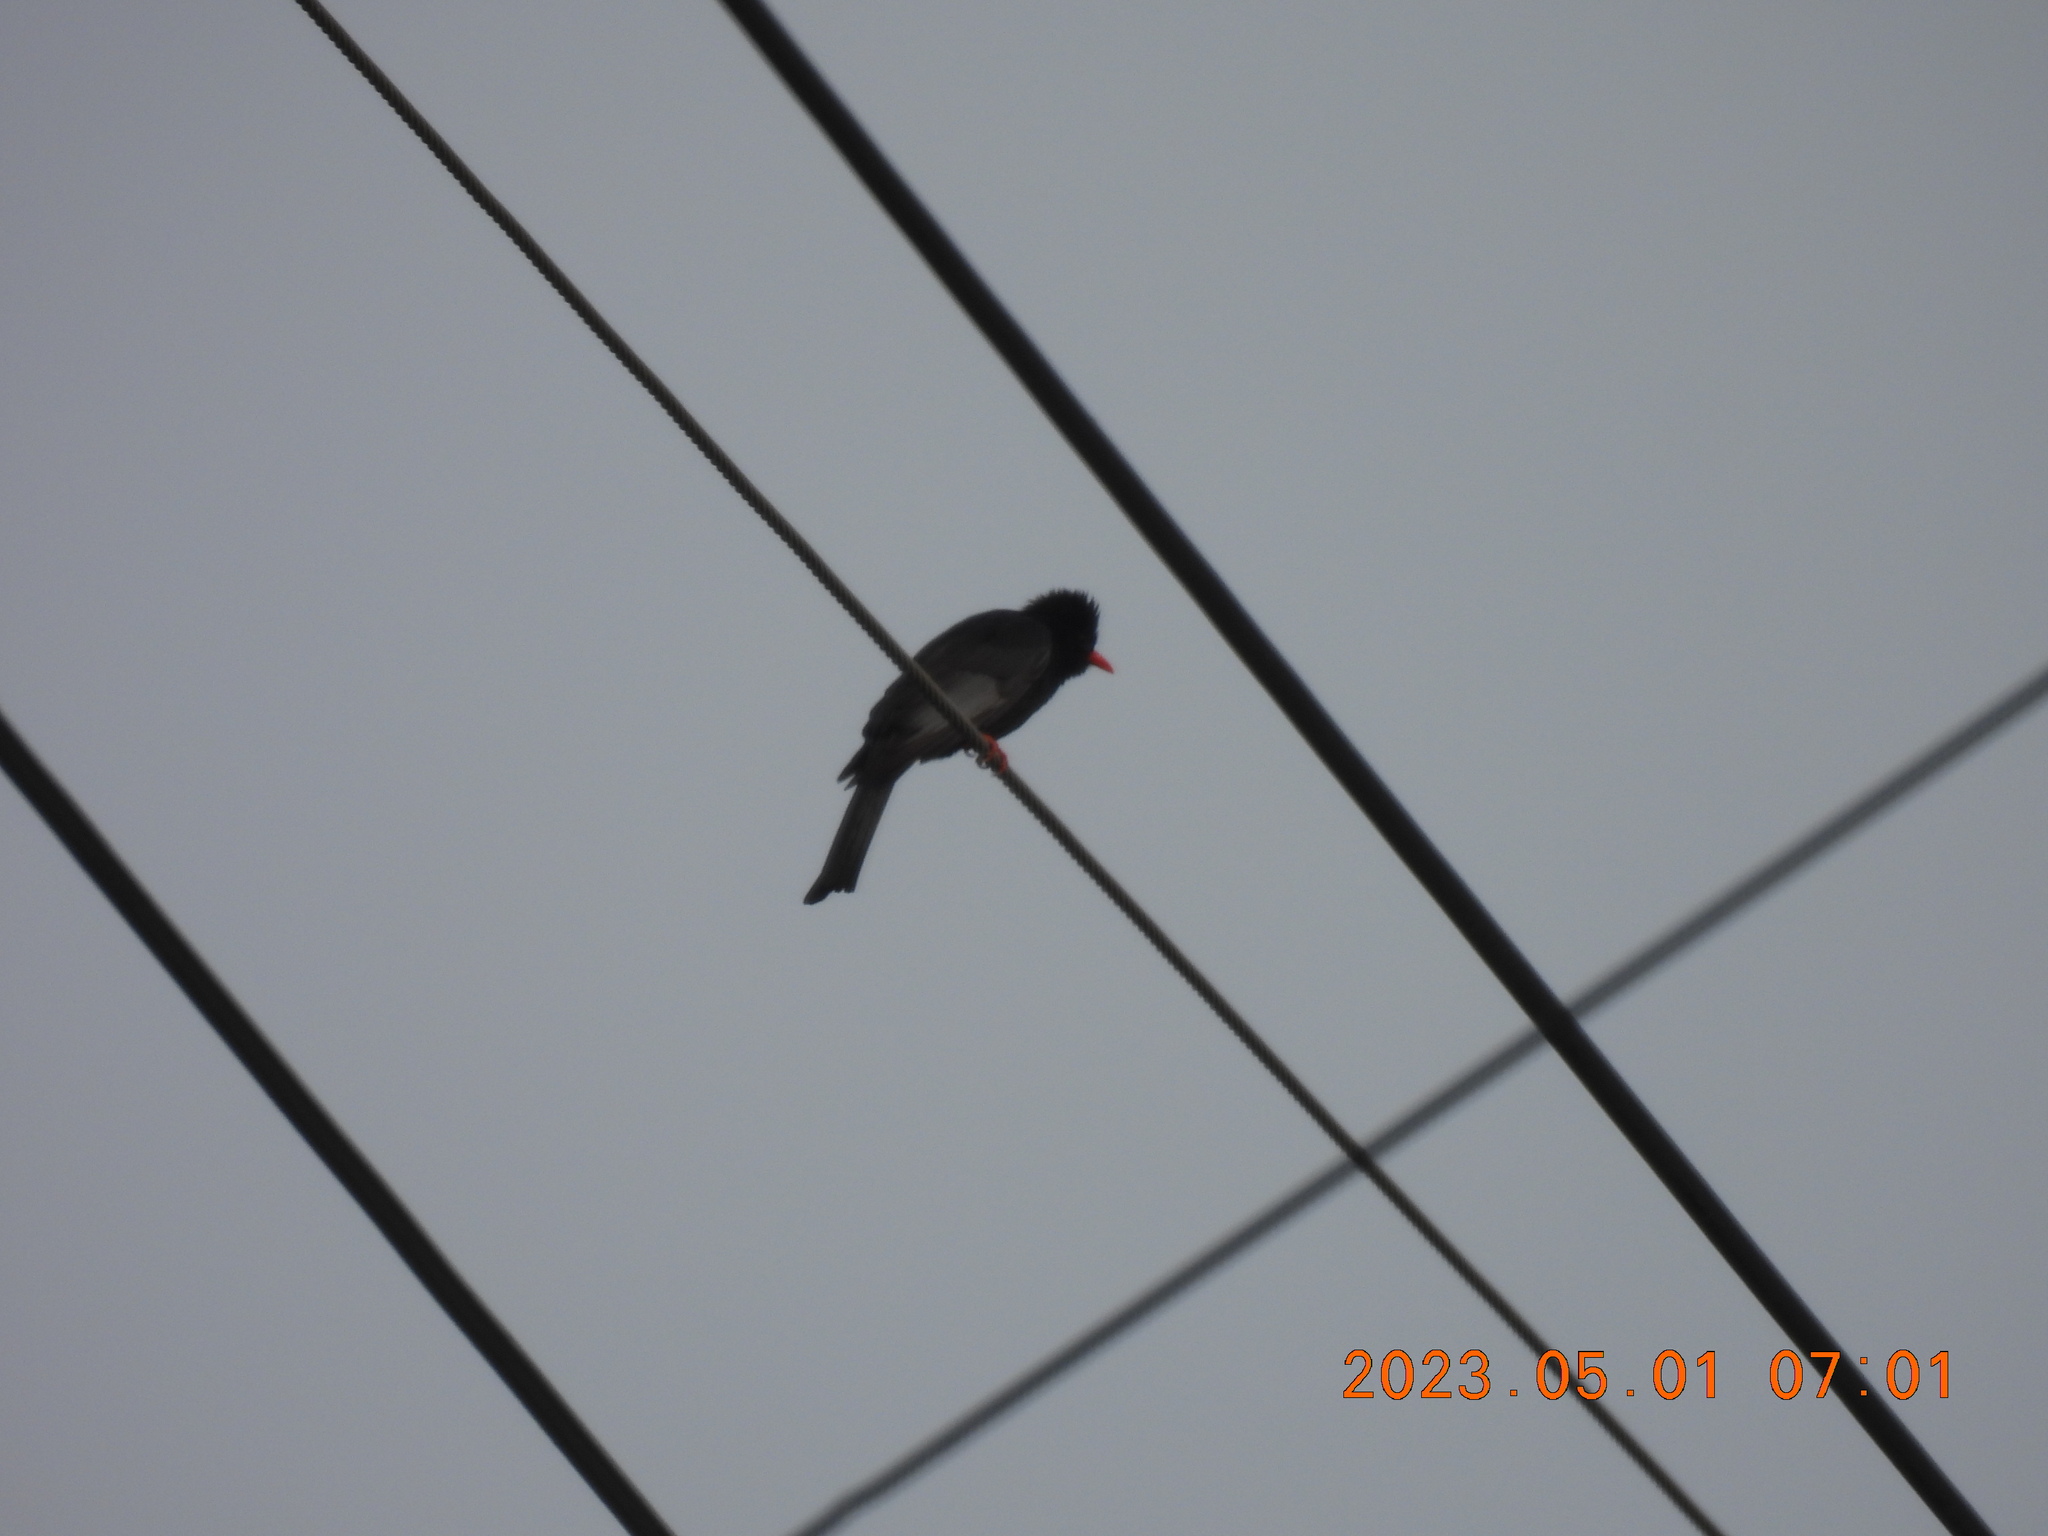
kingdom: Animalia
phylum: Chordata
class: Aves
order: Passeriformes
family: Pycnonotidae
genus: Hypsipetes
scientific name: Hypsipetes leucocephalus
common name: Black bulbul
